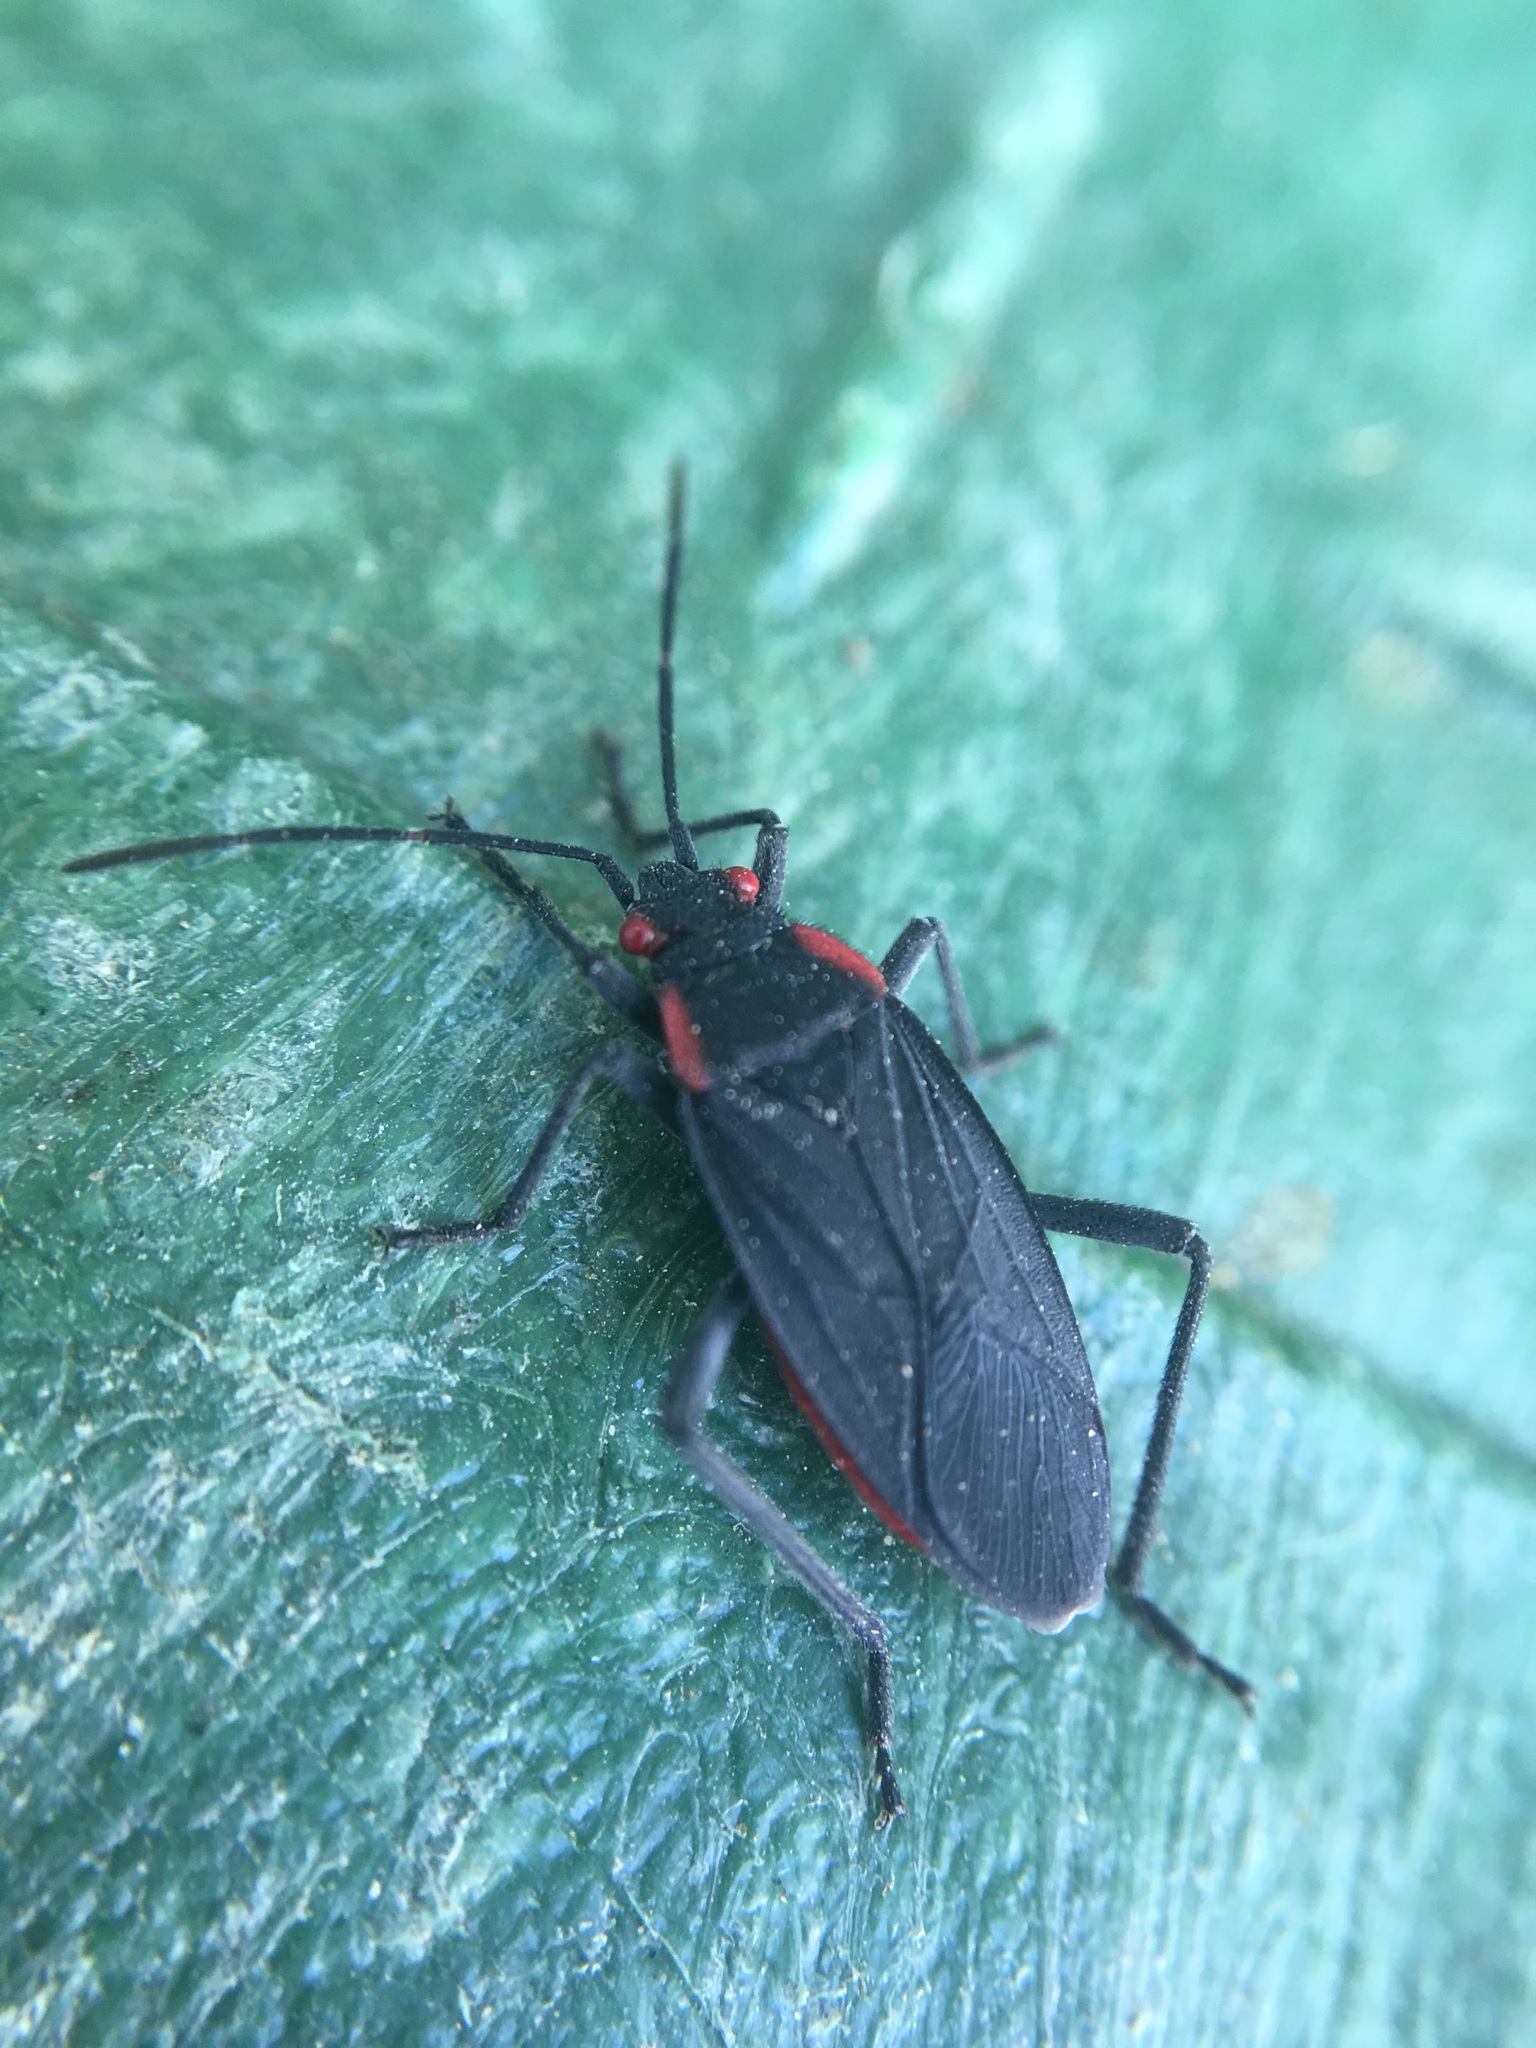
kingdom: Animalia
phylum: Arthropoda
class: Insecta
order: Hemiptera
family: Rhopalidae
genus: Jadera
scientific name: Jadera haematoloma
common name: Red-shouldered bug
